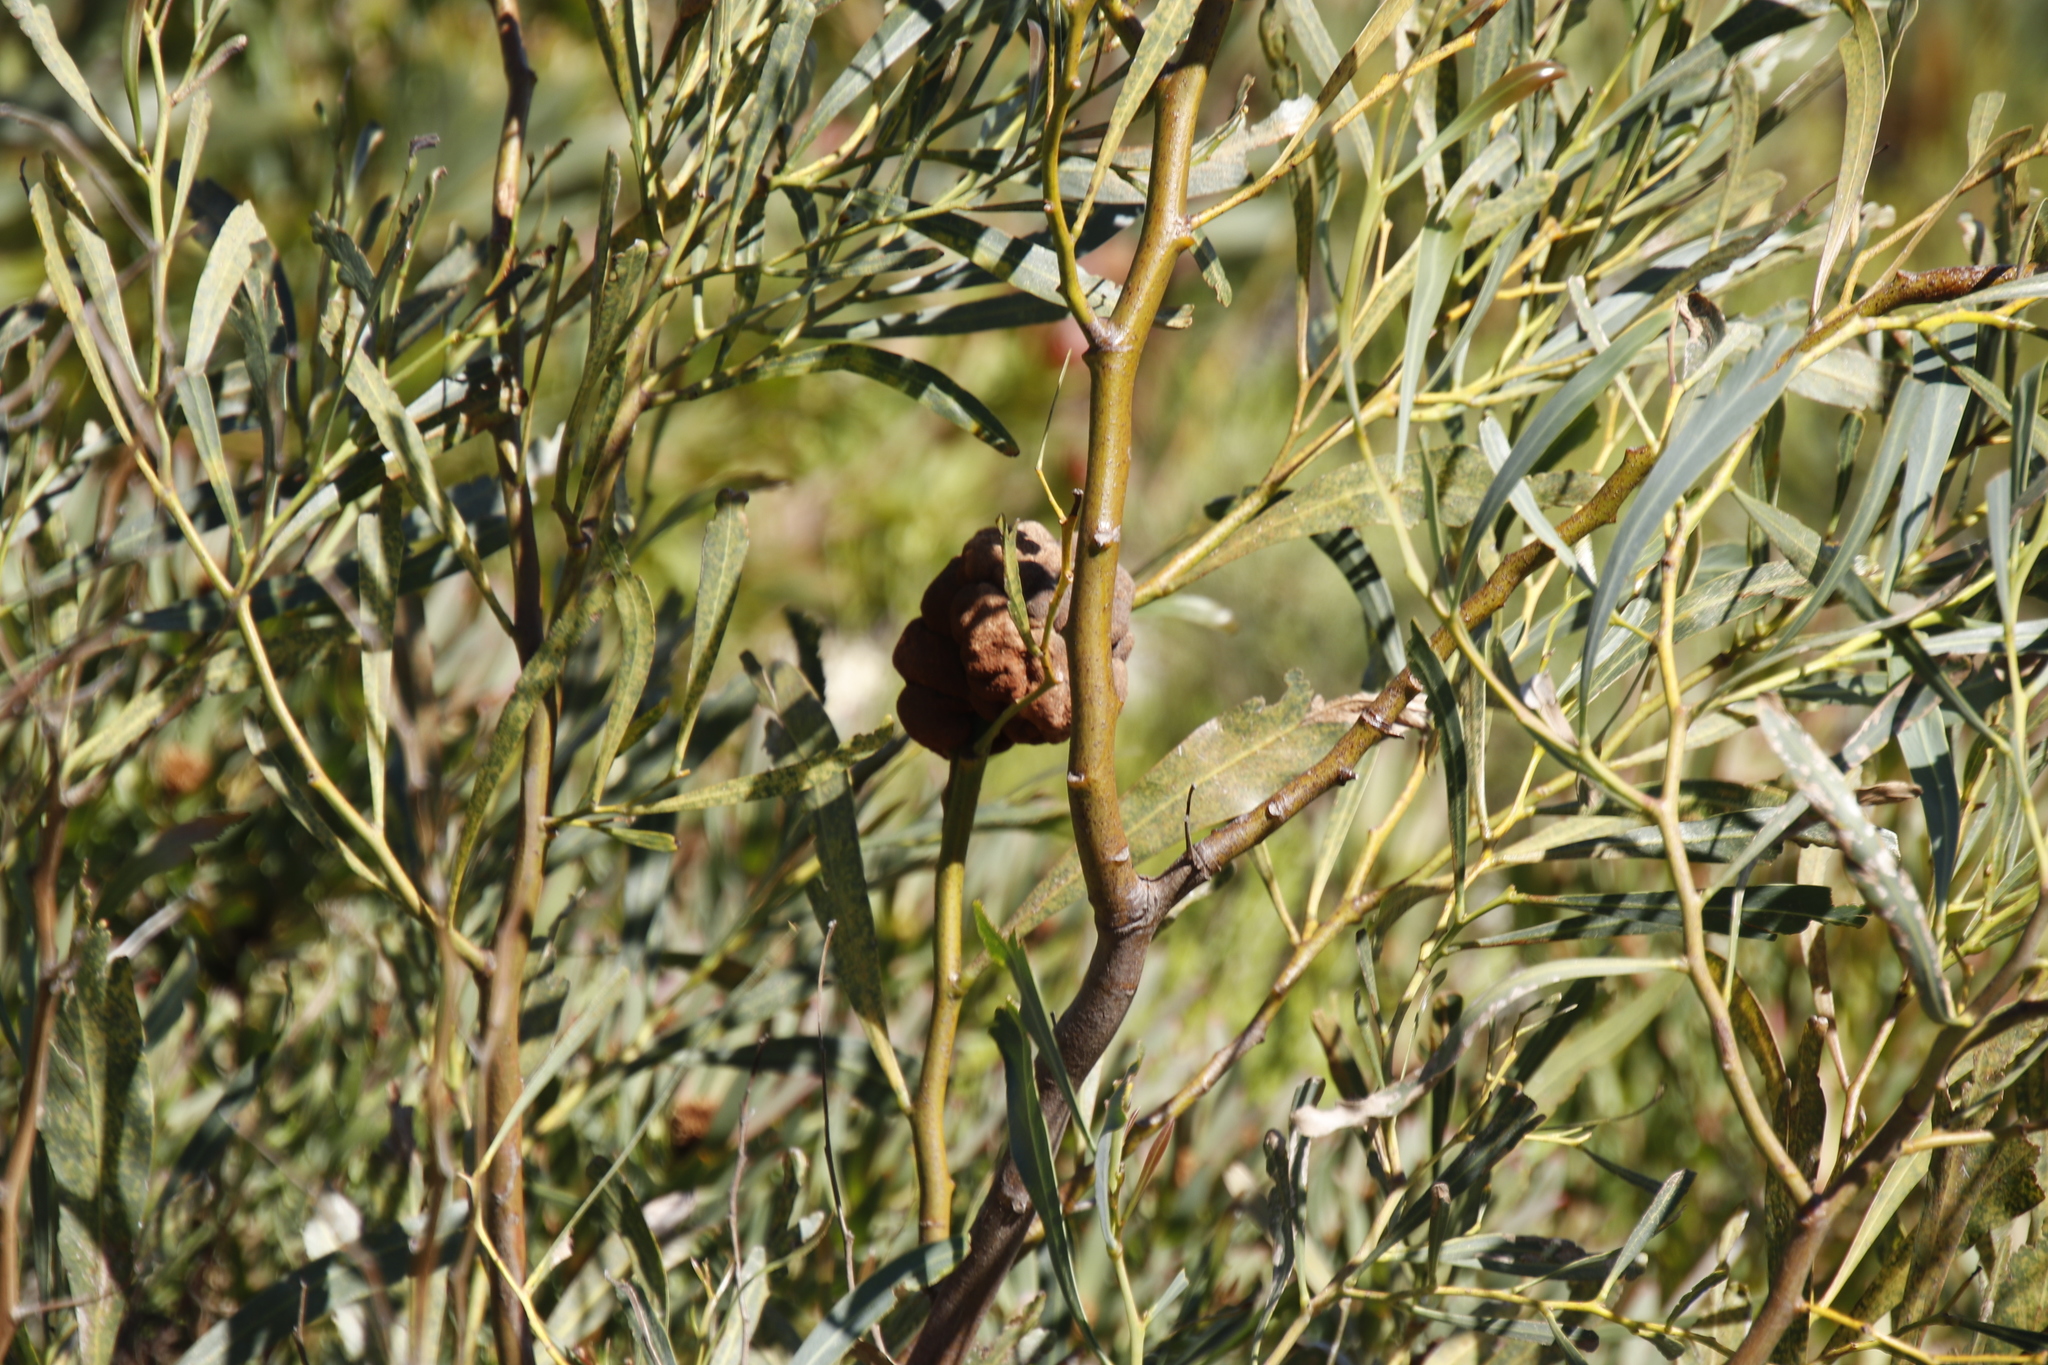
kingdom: Fungi
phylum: Basidiomycota
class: Pucciniomycetes
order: Pucciniales
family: Uromycladiaceae
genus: Uromycladium
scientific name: Uromycladium morrisii
